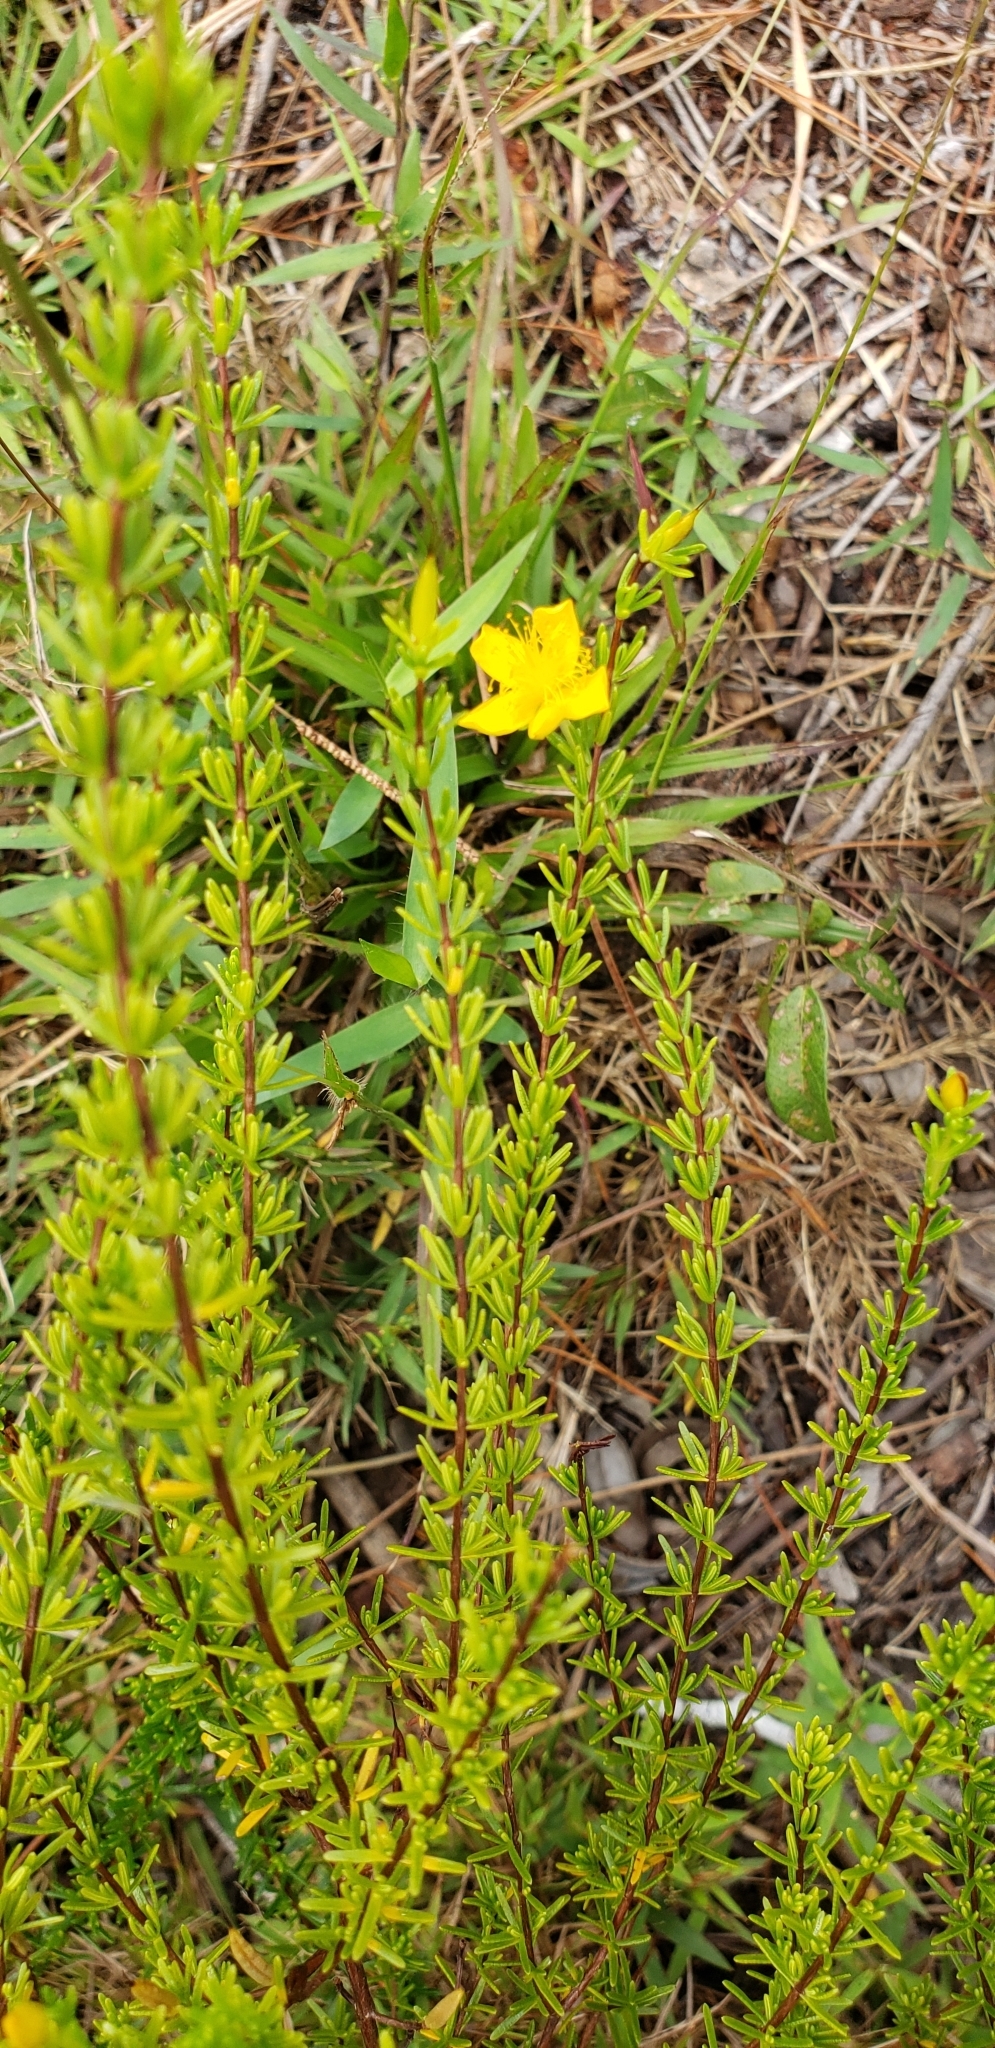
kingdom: Plantae
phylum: Tracheophyta
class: Magnoliopsida
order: Malpighiales
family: Hypericaceae
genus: Hypericum
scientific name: Hypericum tenuifolium
